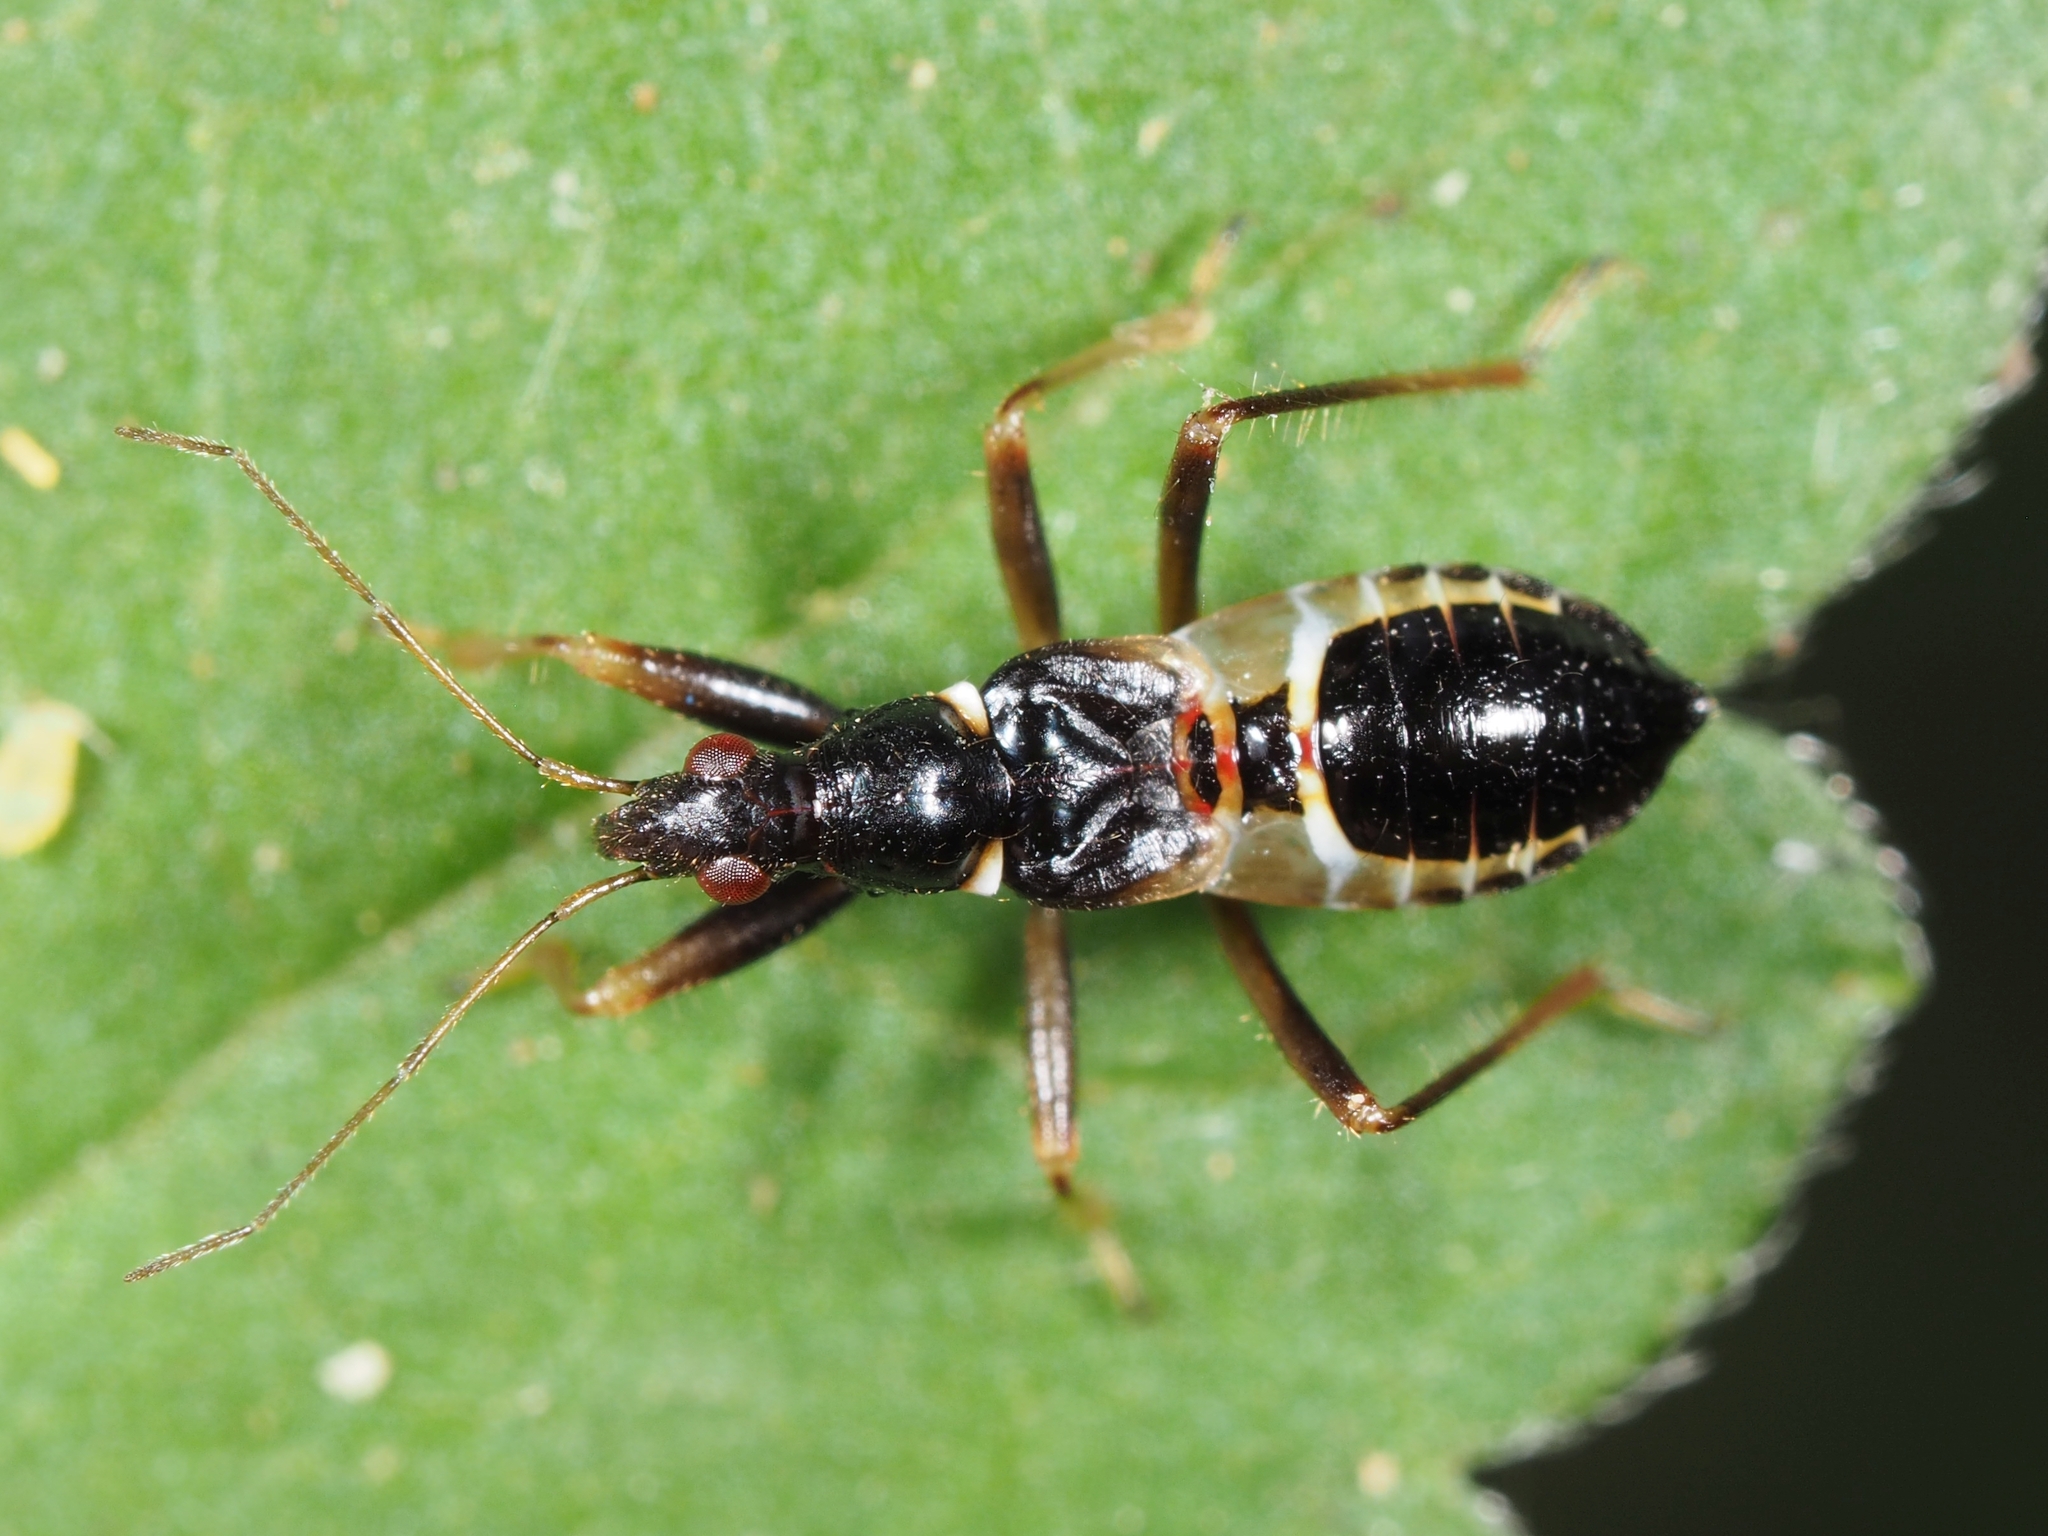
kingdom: Animalia
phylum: Arthropoda
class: Insecta
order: Hemiptera
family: Nabidae
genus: Himacerus
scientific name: Himacerus mirmicoides
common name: Ant damsel bug
